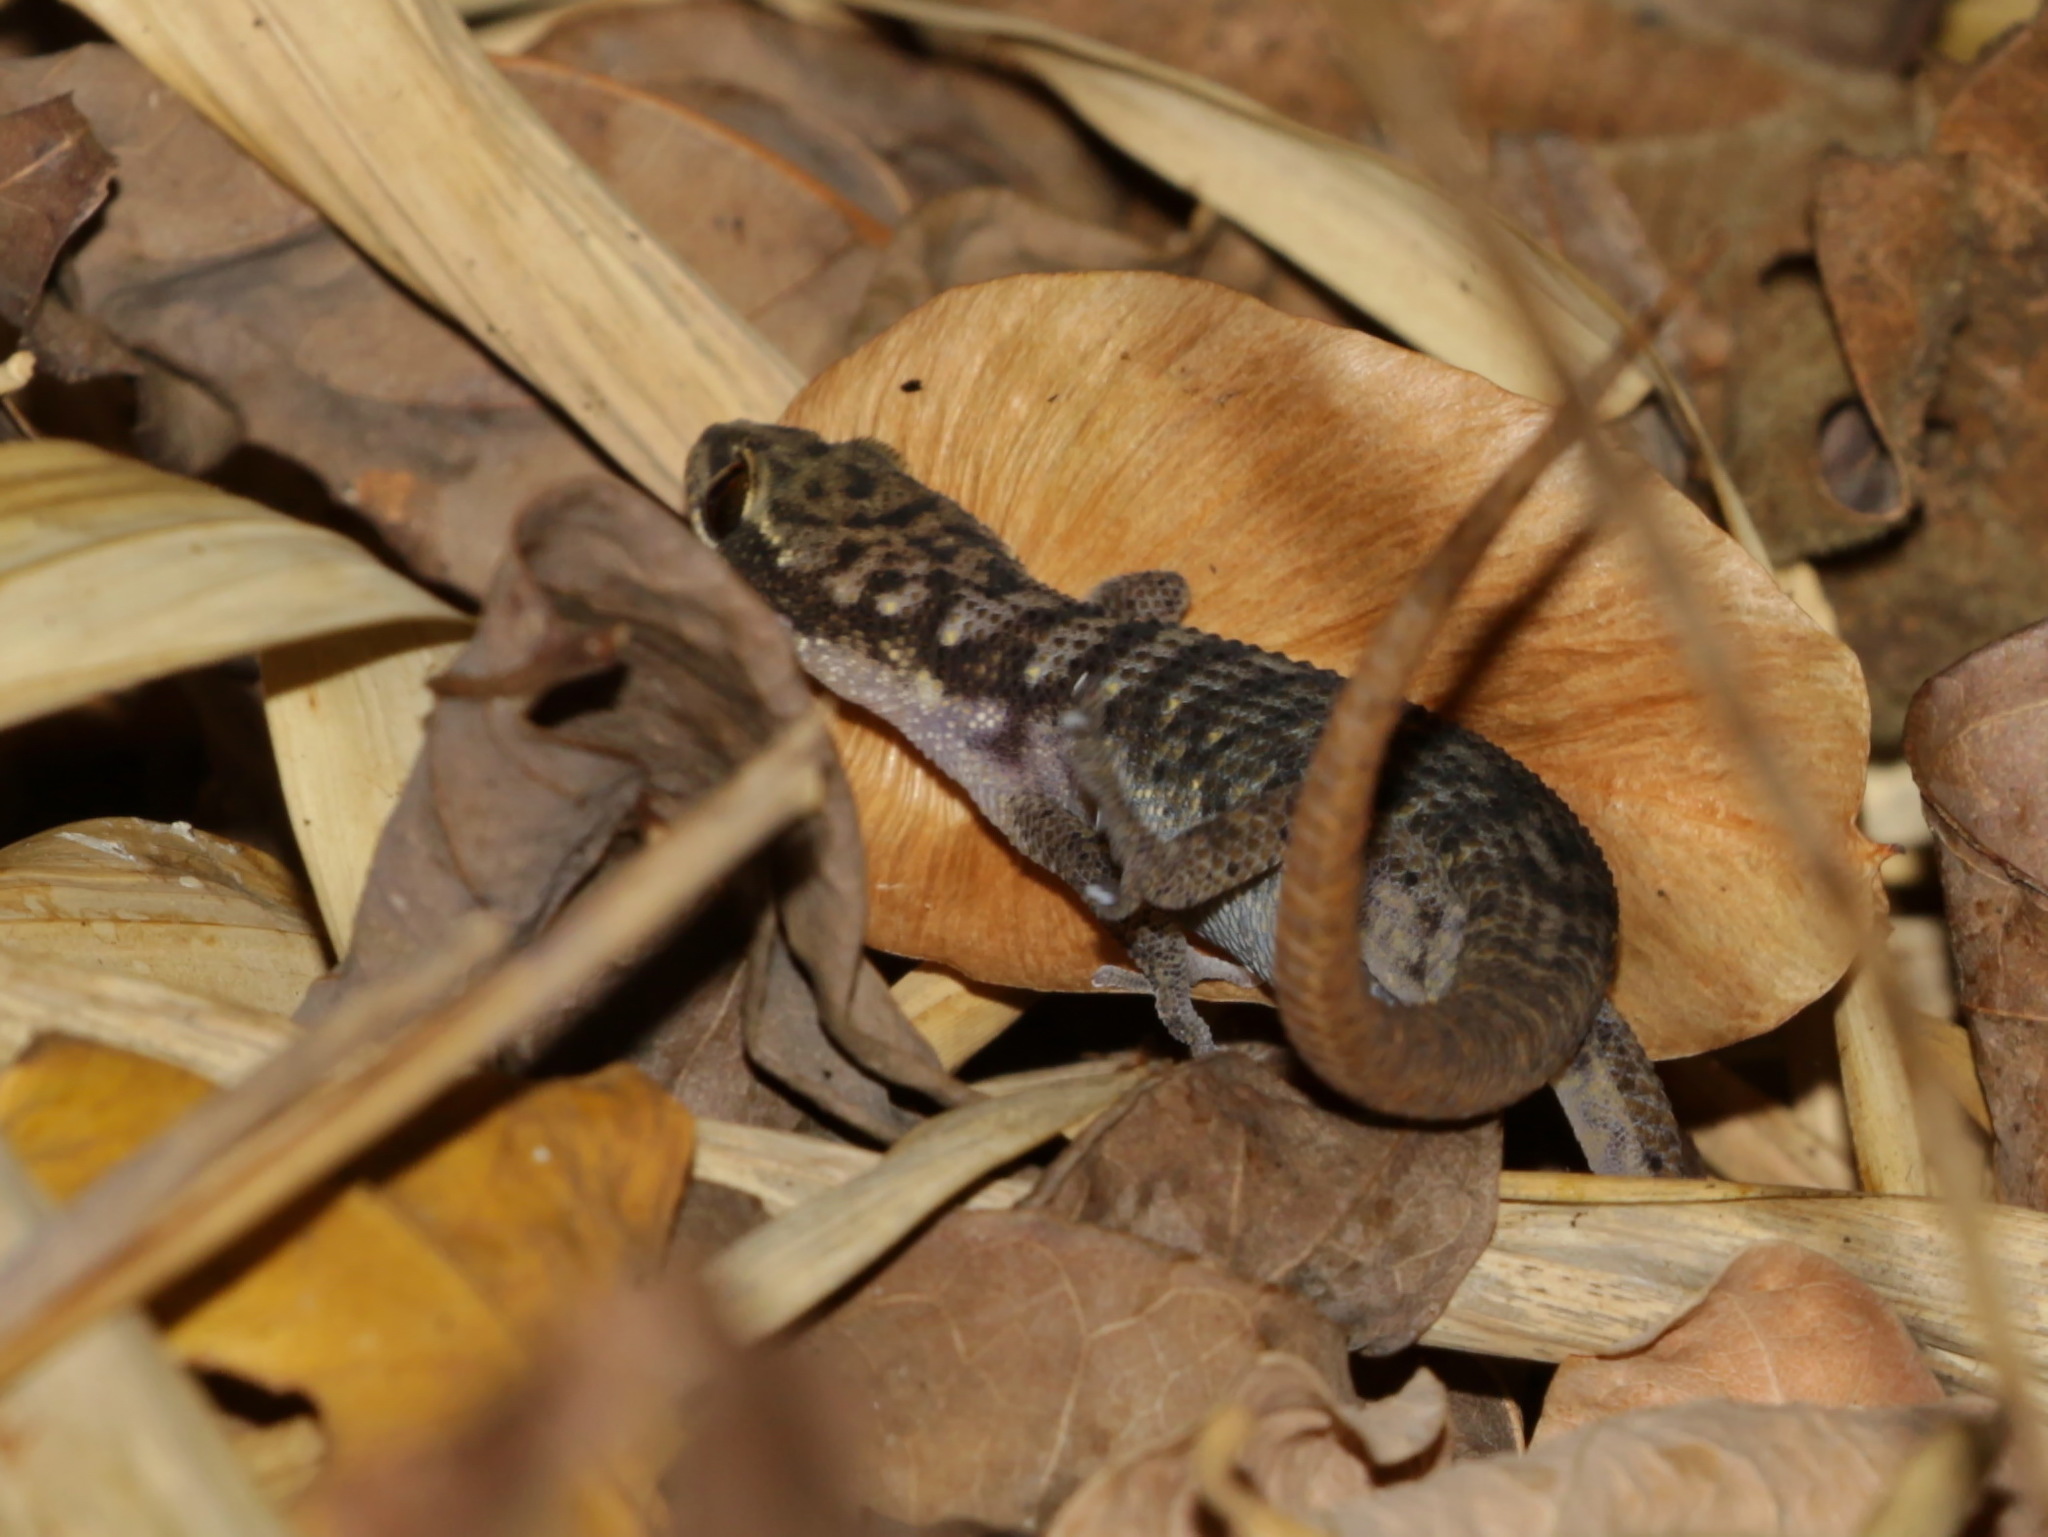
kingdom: Animalia
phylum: Chordata
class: Squamata
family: Gekkonidae
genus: Dixonius
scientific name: Dixonius hangseesom
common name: Yellow-tailed leaf-toed gecko
